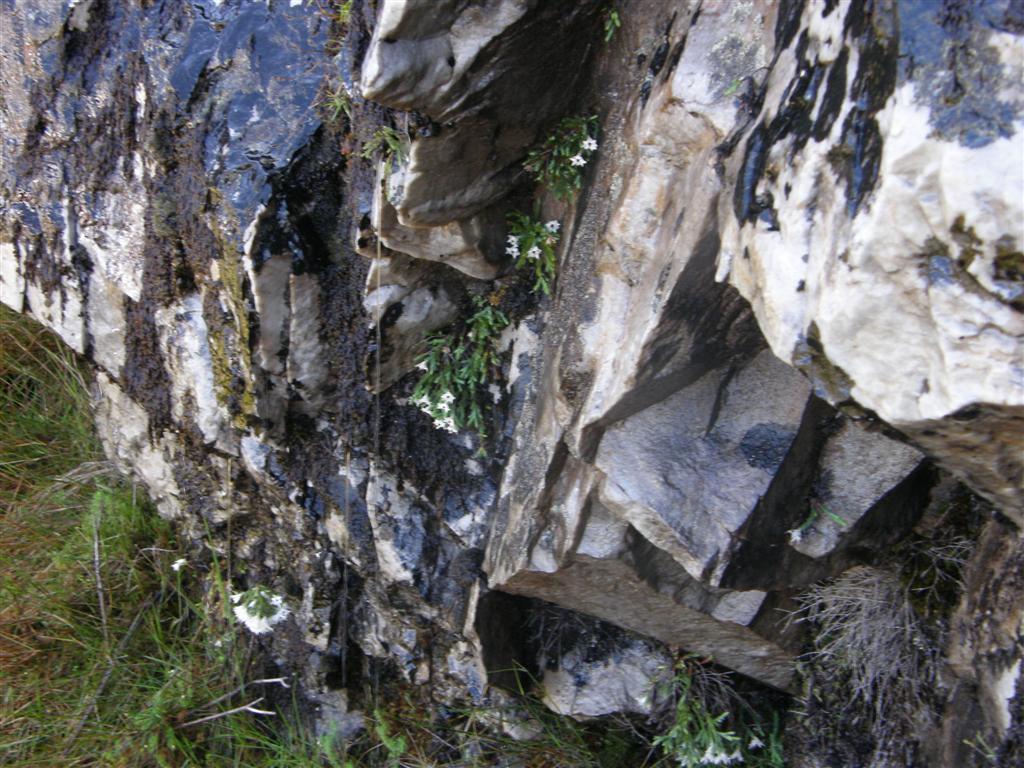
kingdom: Plantae
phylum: Tracheophyta
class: Magnoliopsida
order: Ericales
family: Ericaceae
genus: Erica
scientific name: Erica galgebergensis
